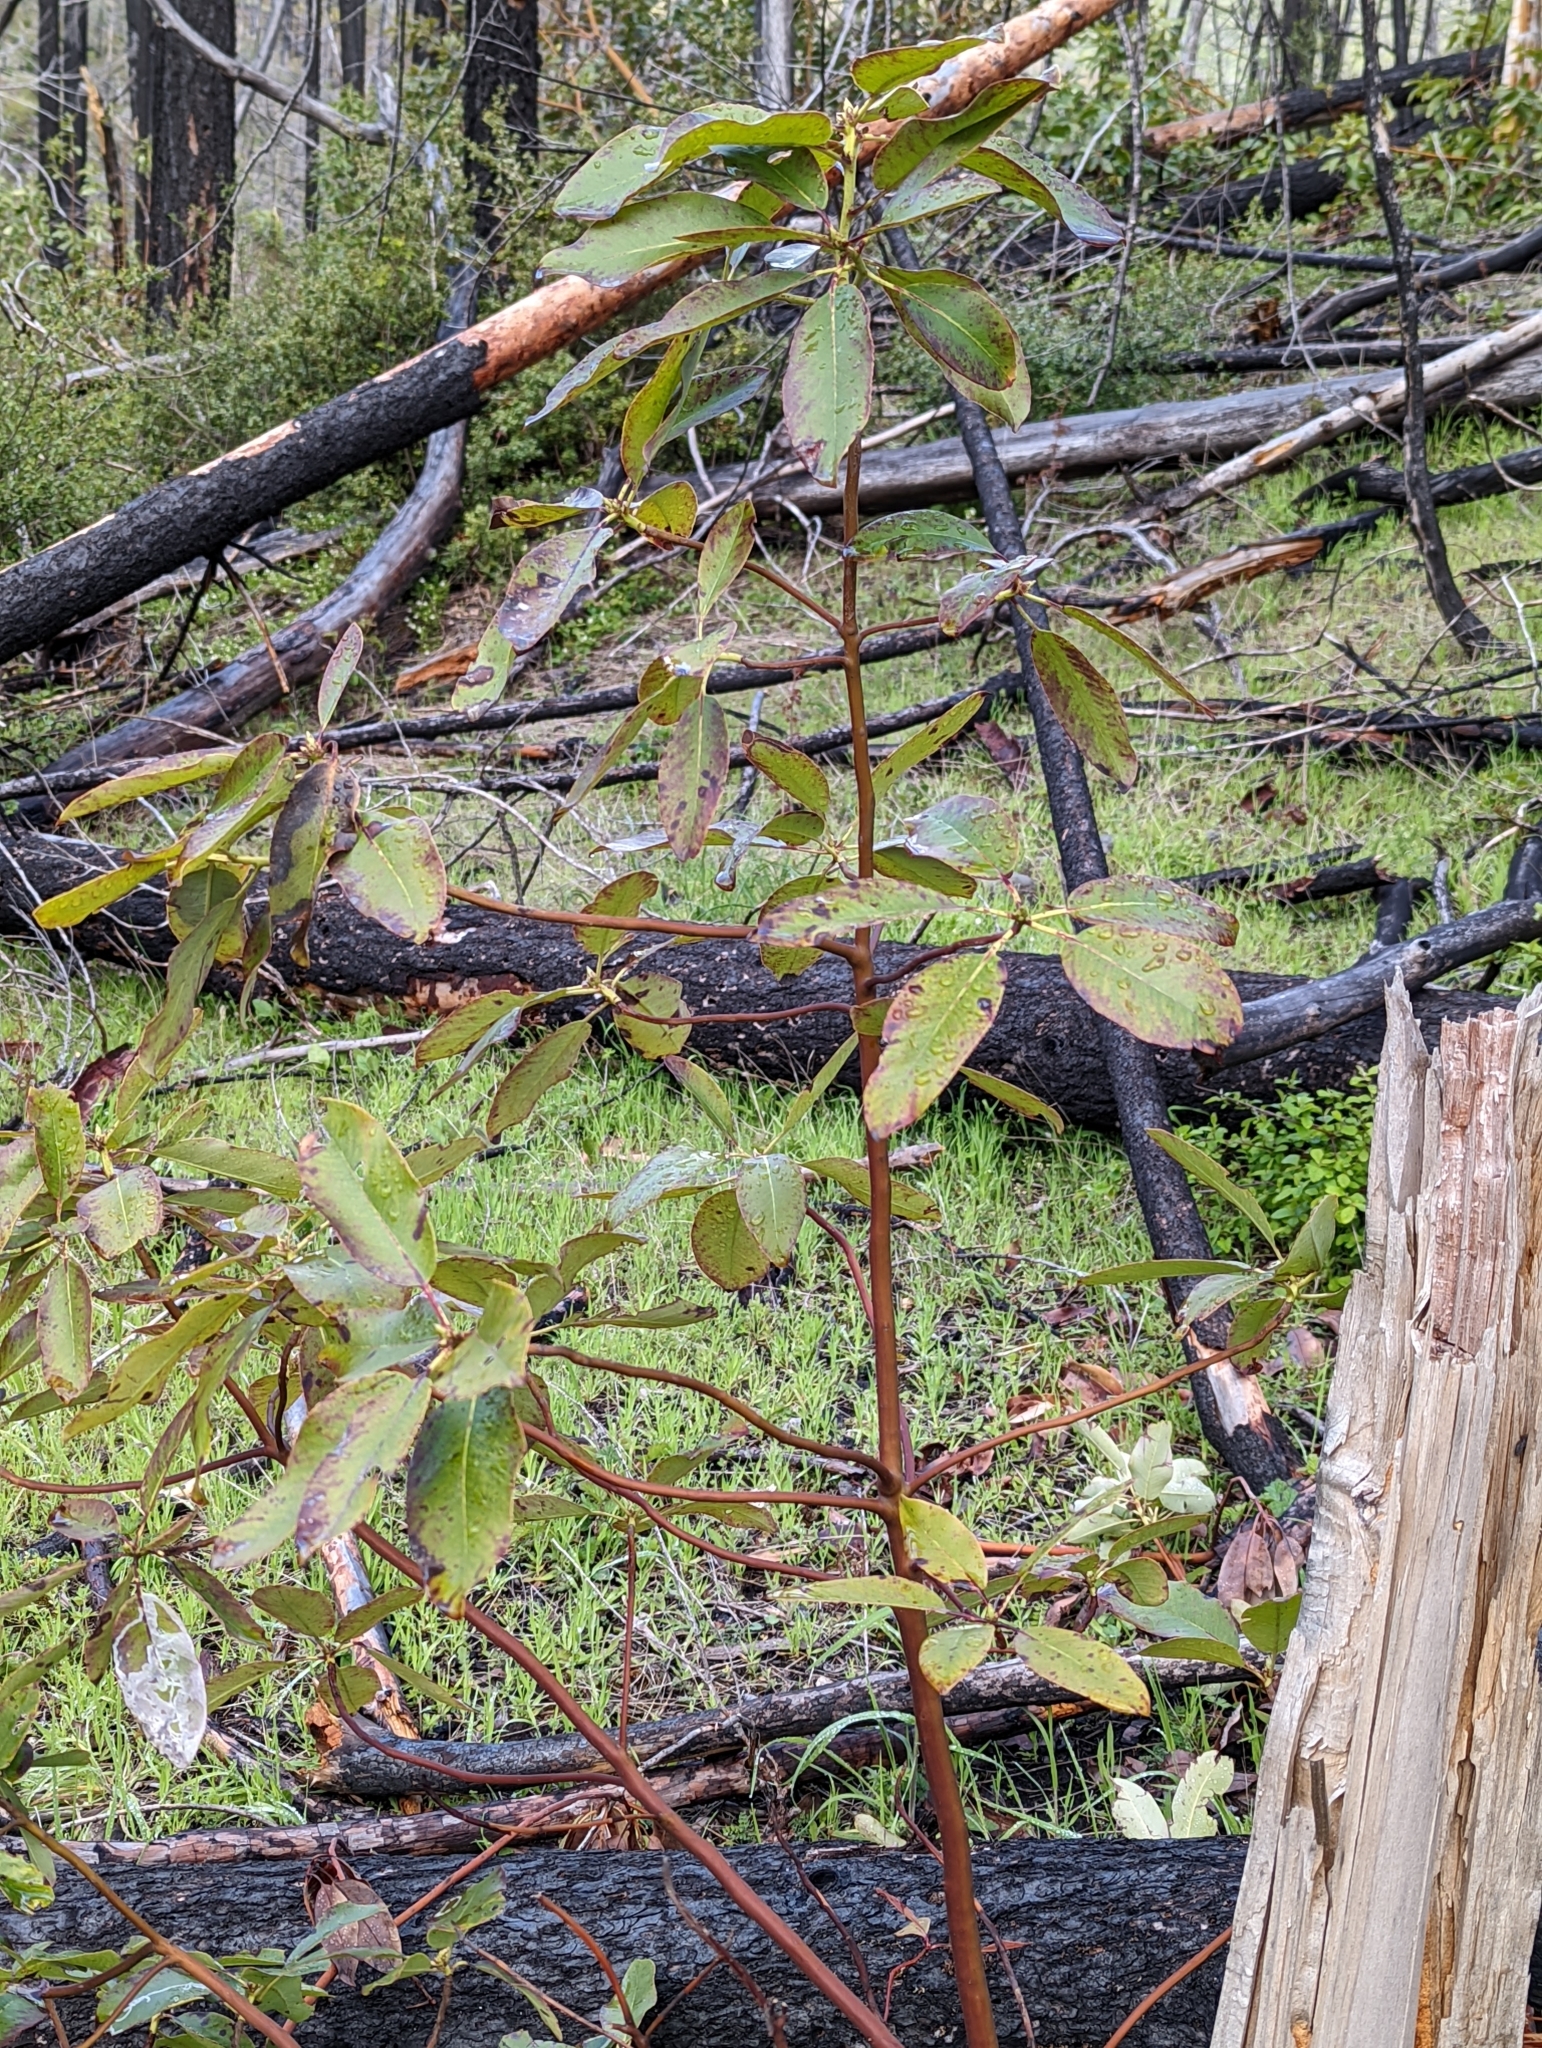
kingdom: Plantae
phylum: Tracheophyta
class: Magnoliopsida
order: Ericales
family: Ericaceae
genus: Arbutus
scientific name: Arbutus menziesii
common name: Pacific madrone
